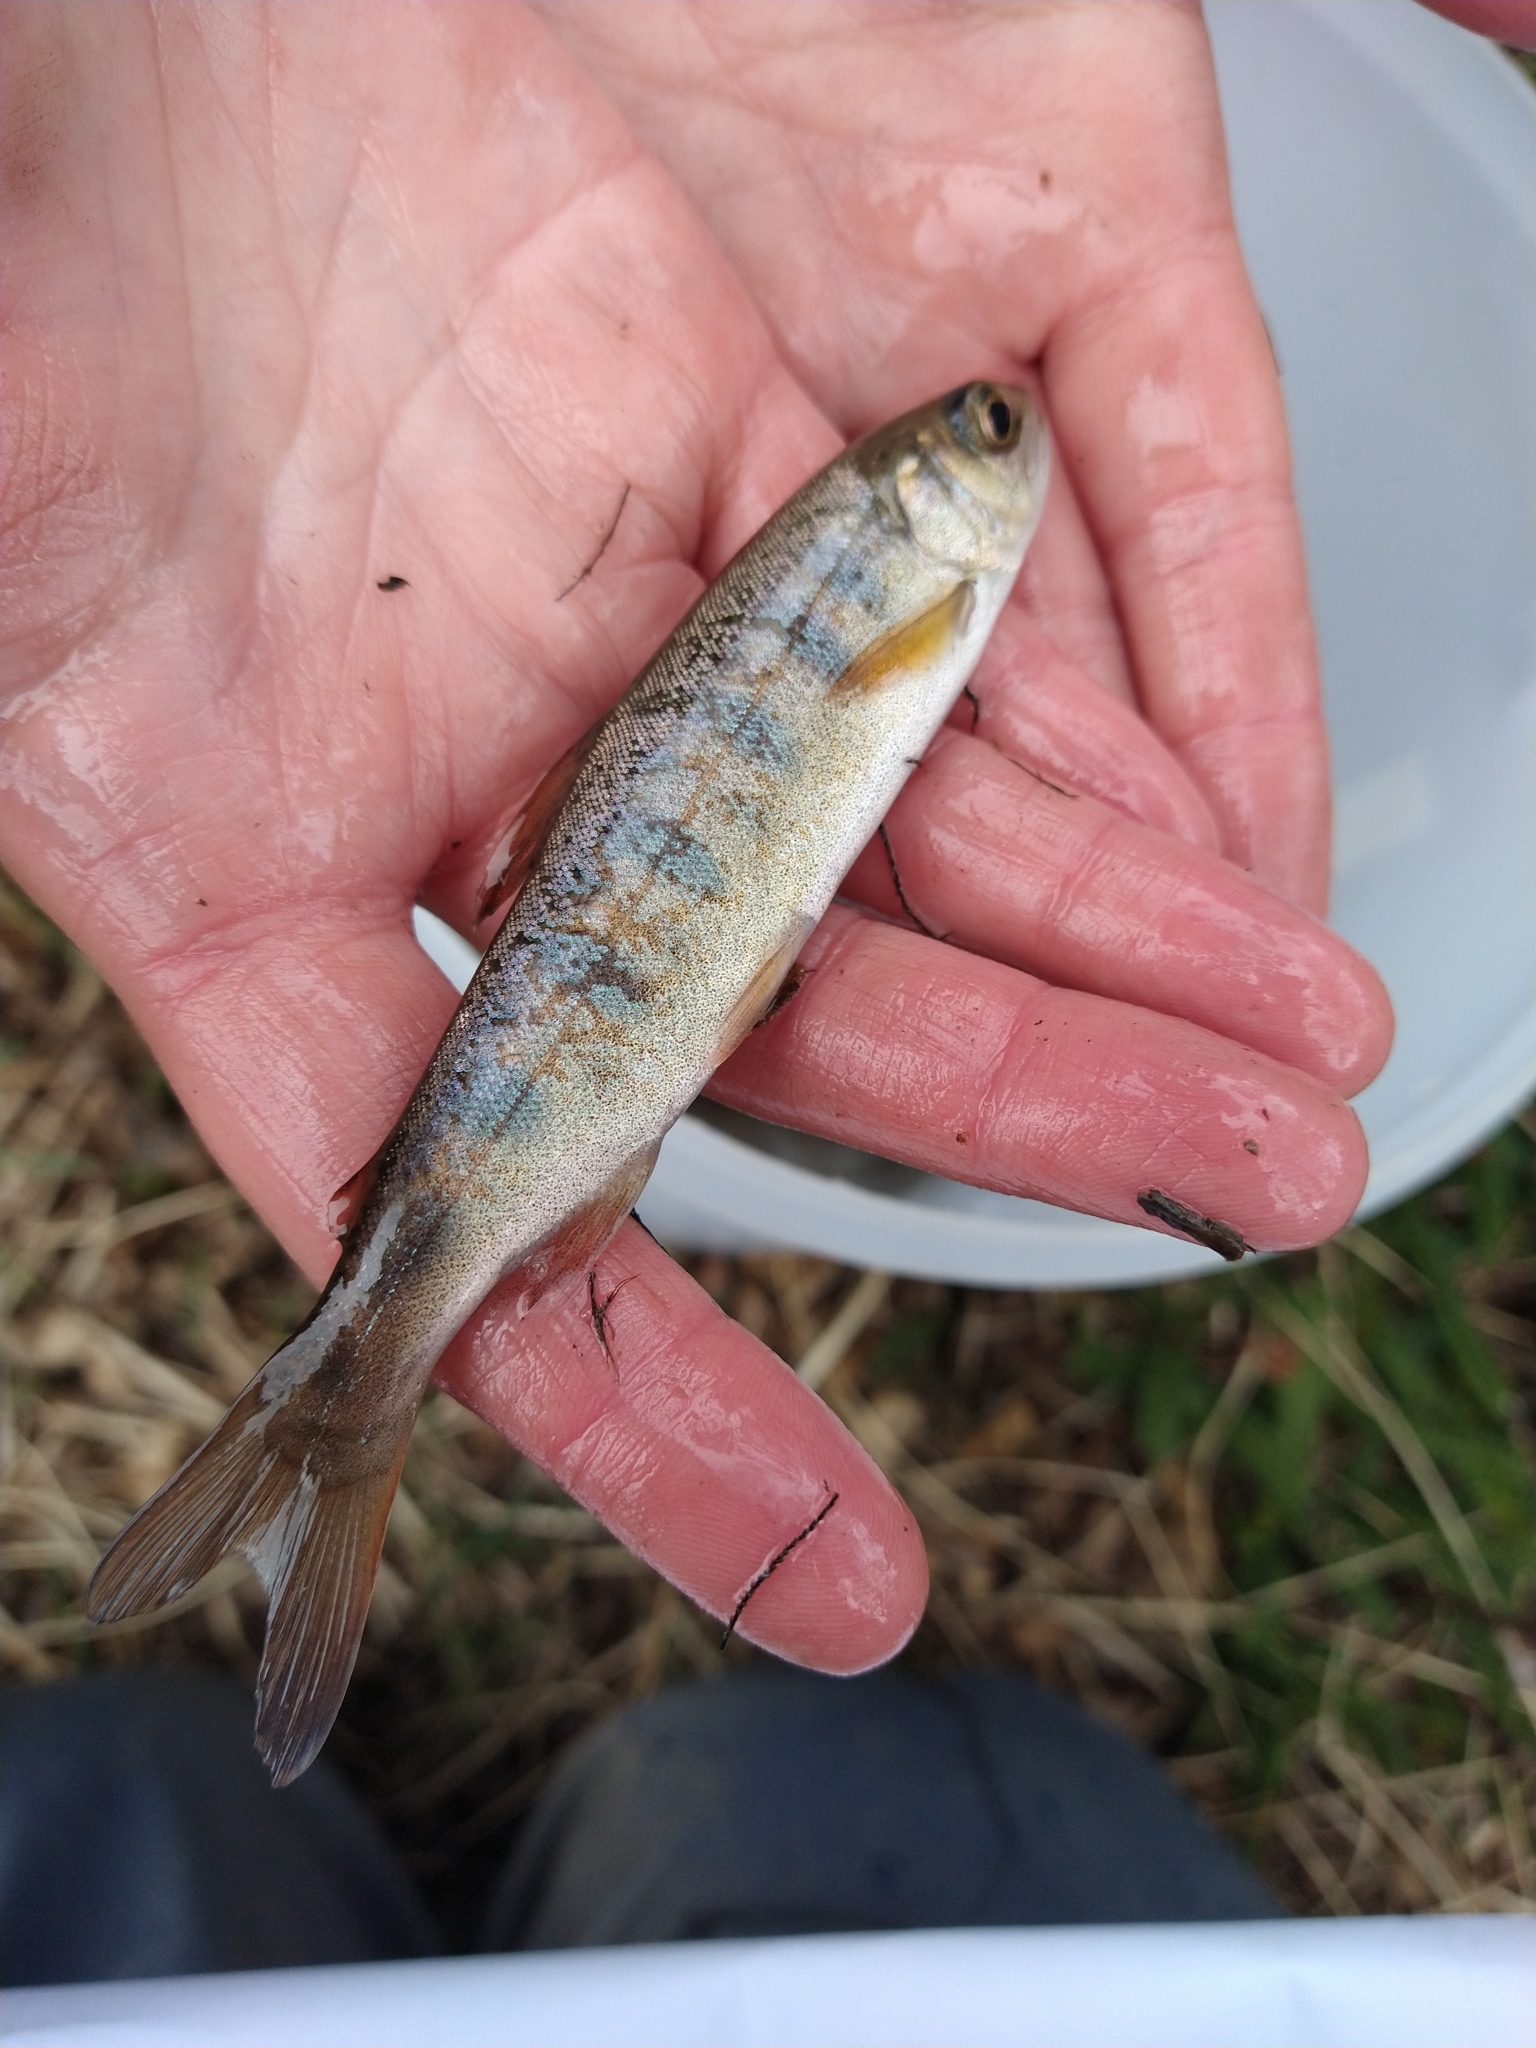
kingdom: Animalia
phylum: Chordata
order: Salmoniformes
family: Salmonidae
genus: Oncorhynchus
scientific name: Oncorhynchus kisutch
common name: Coho salmon
